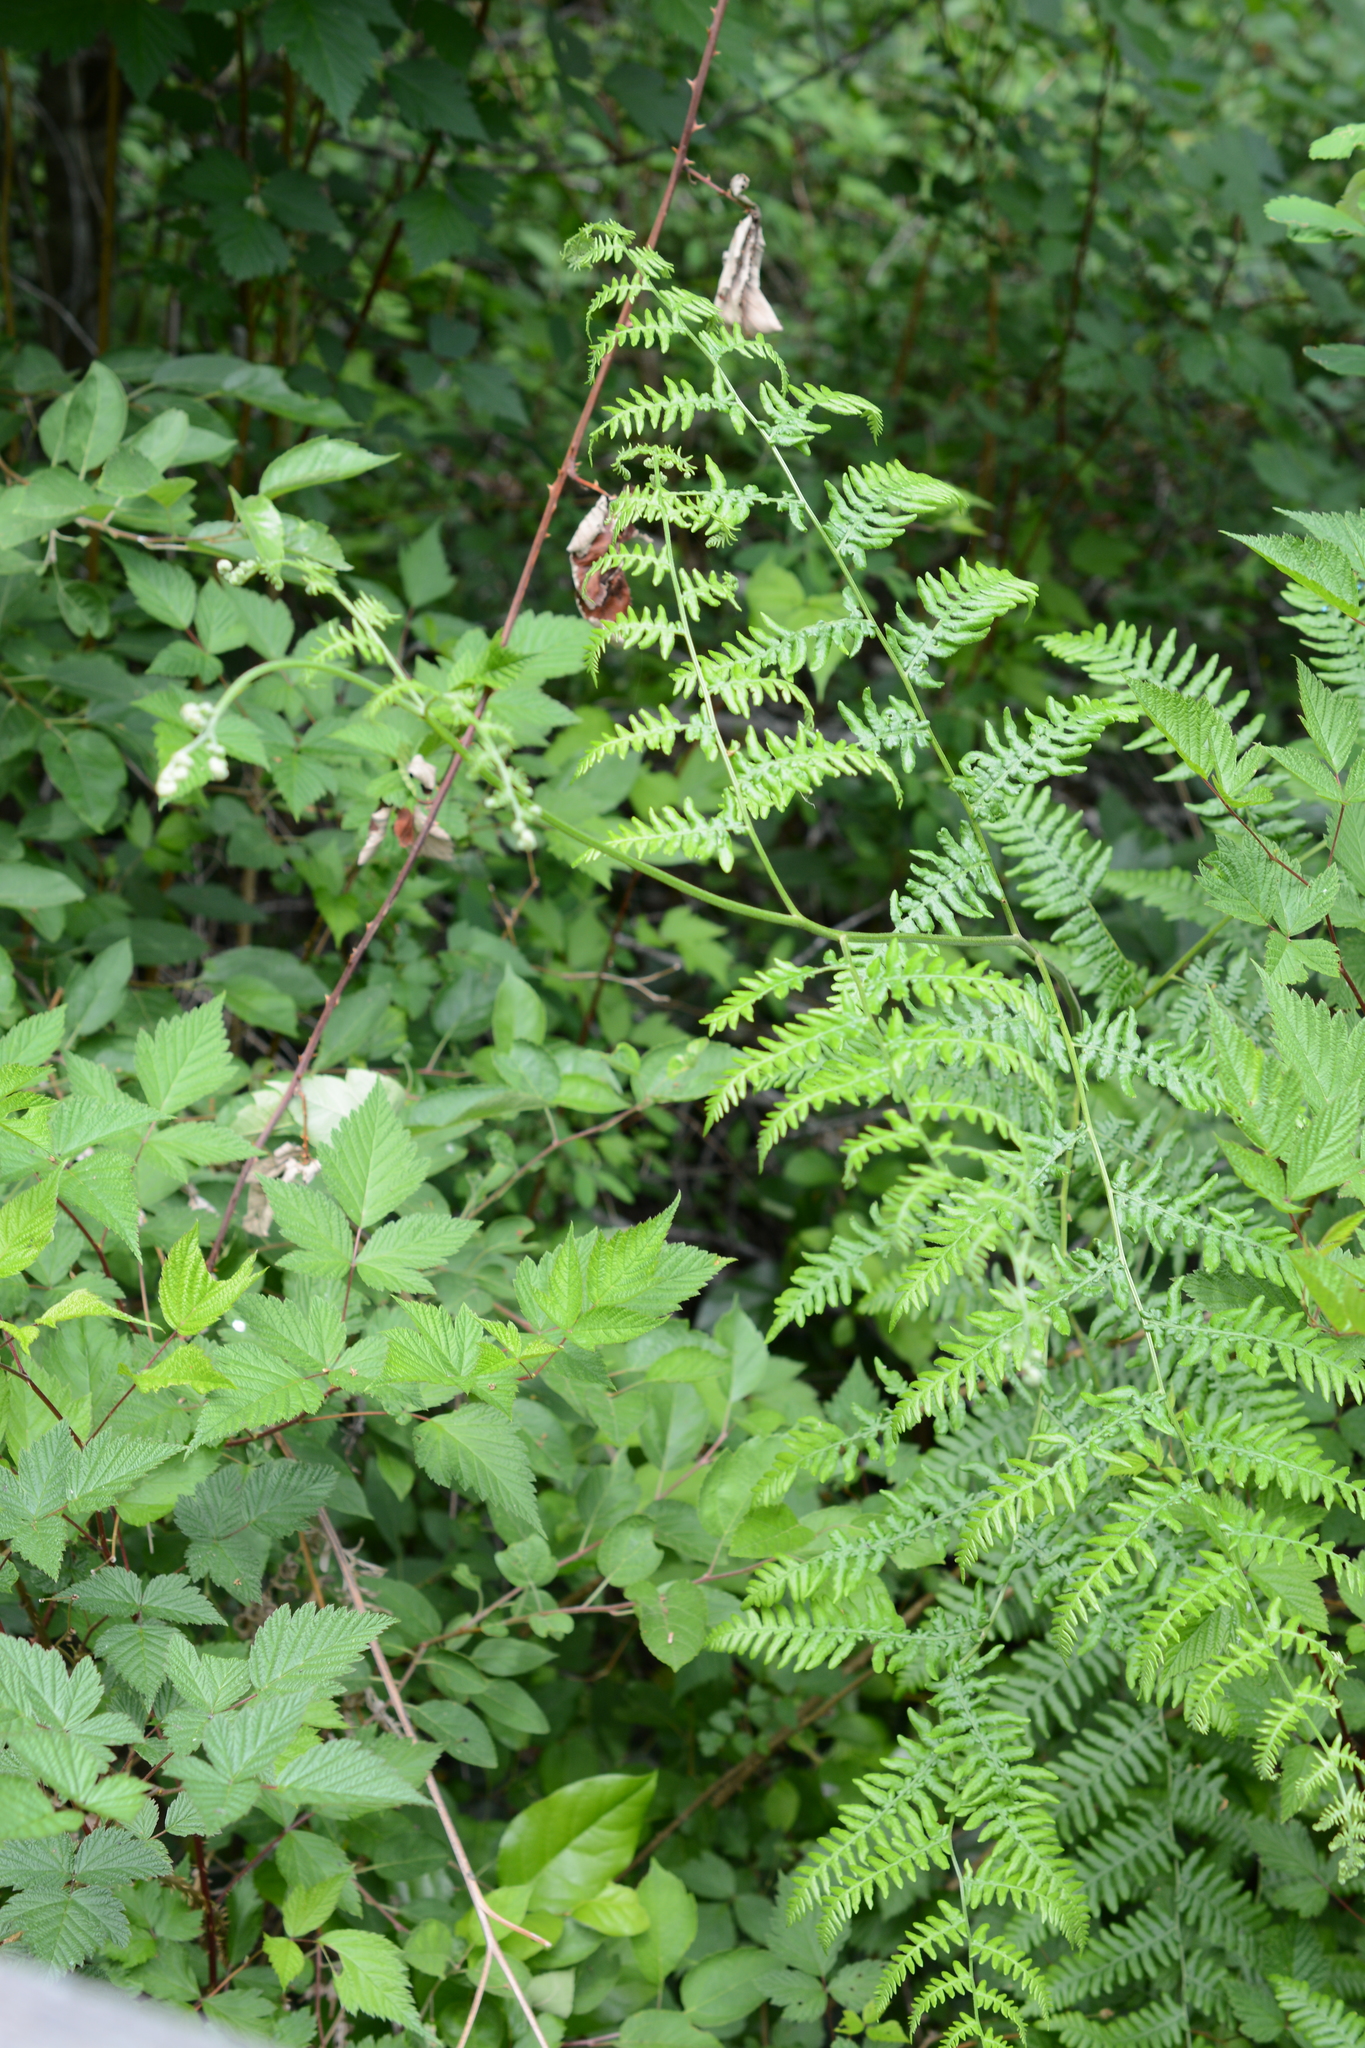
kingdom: Plantae
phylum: Tracheophyta
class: Polypodiopsida
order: Polypodiales
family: Dennstaedtiaceae
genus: Pteridium
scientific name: Pteridium aquilinum
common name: Bracken
